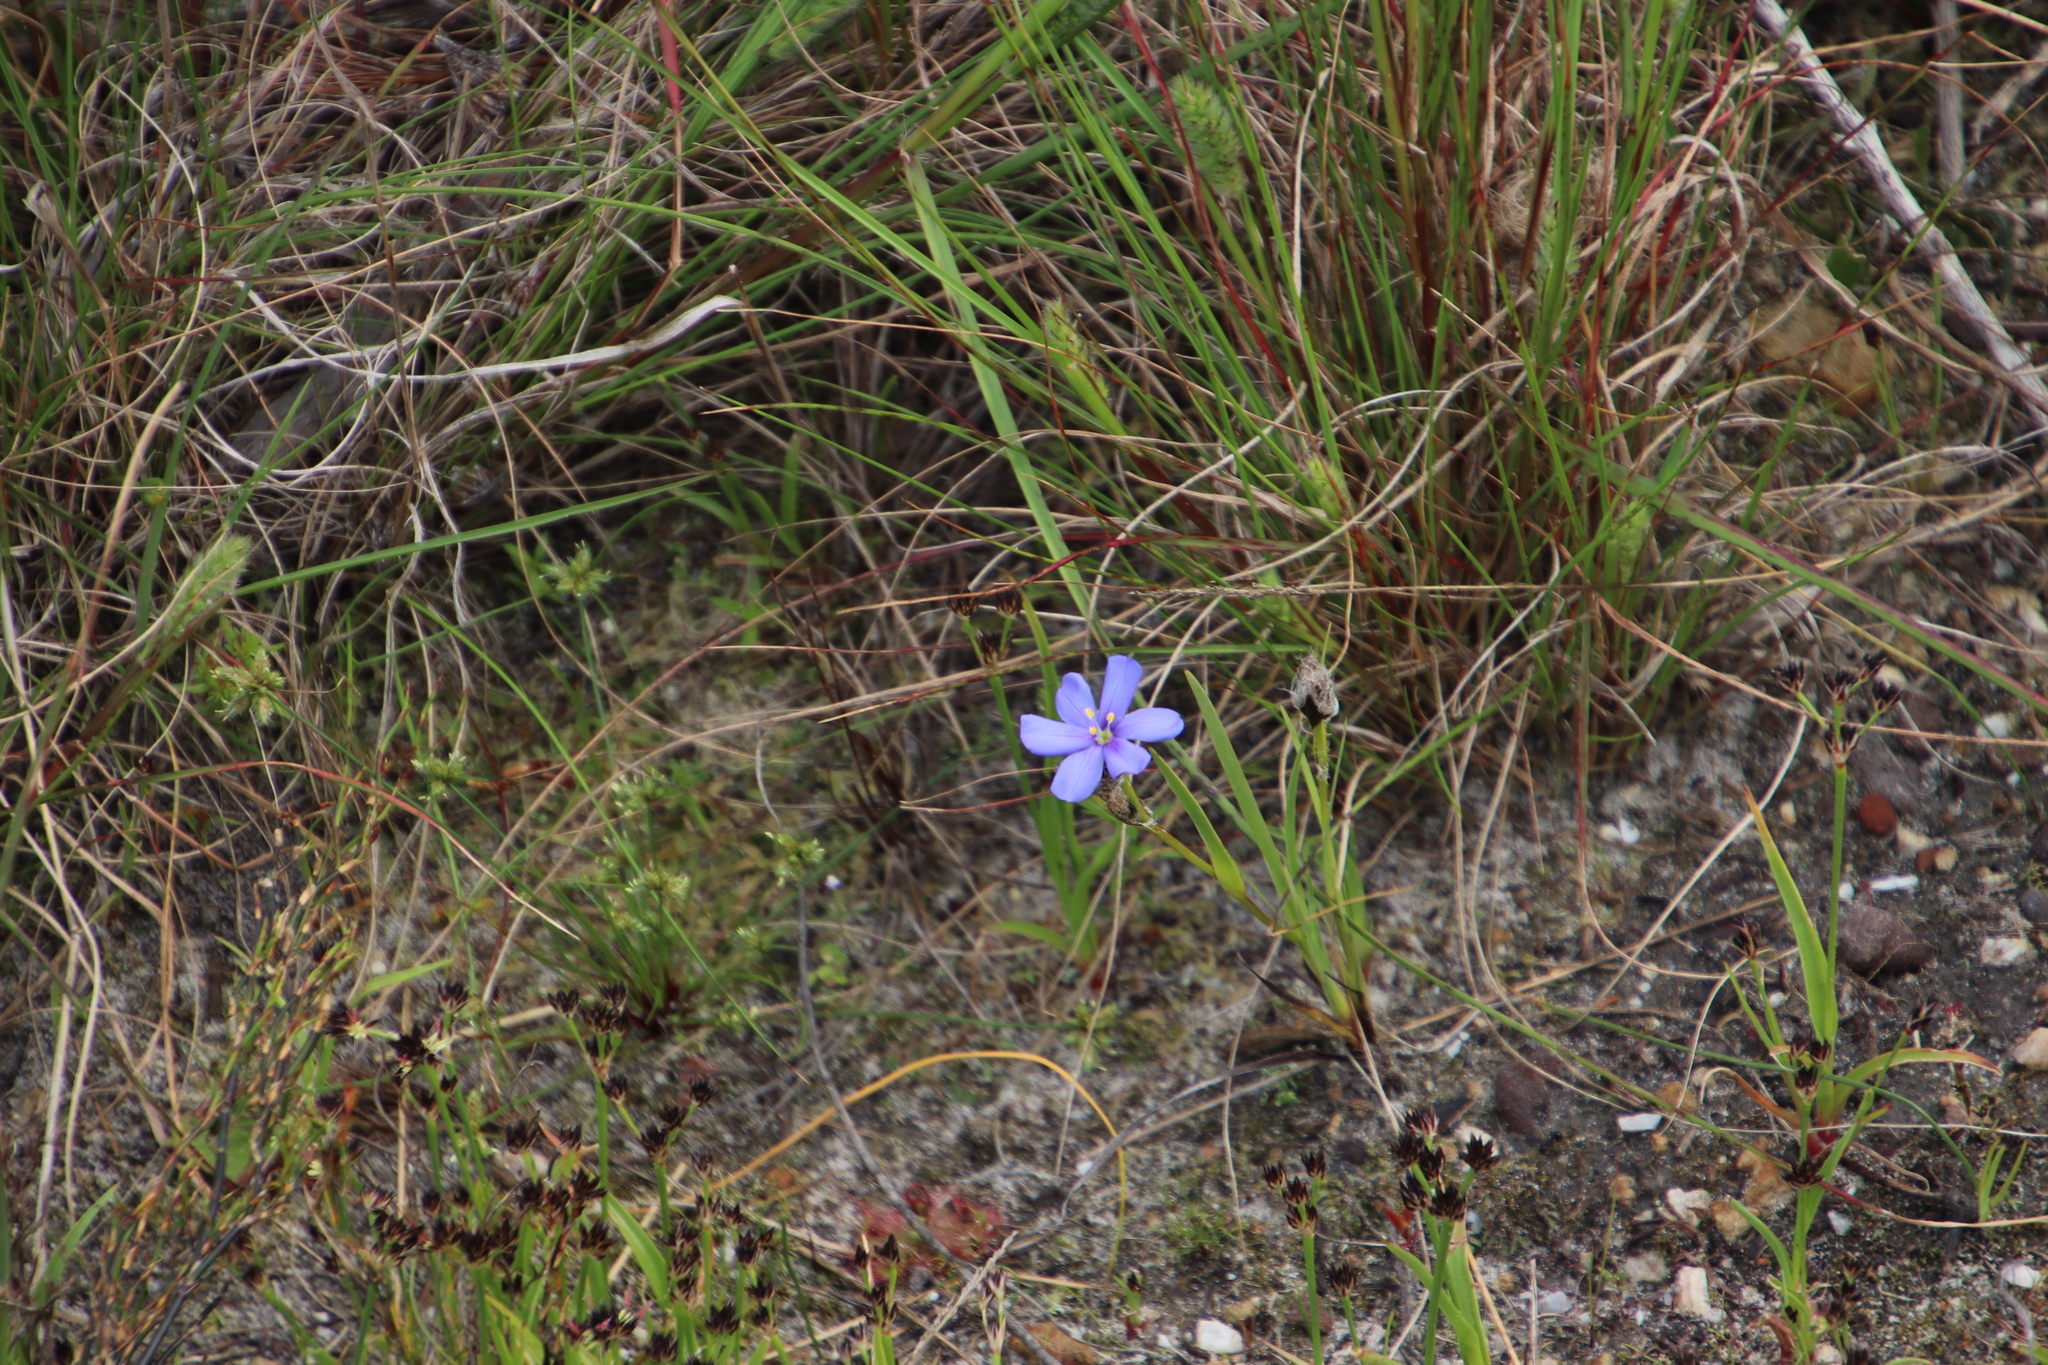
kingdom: Plantae
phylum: Tracheophyta
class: Liliopsida
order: Asparagales
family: Iridaceae
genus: Aristea
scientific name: Aristea africana
